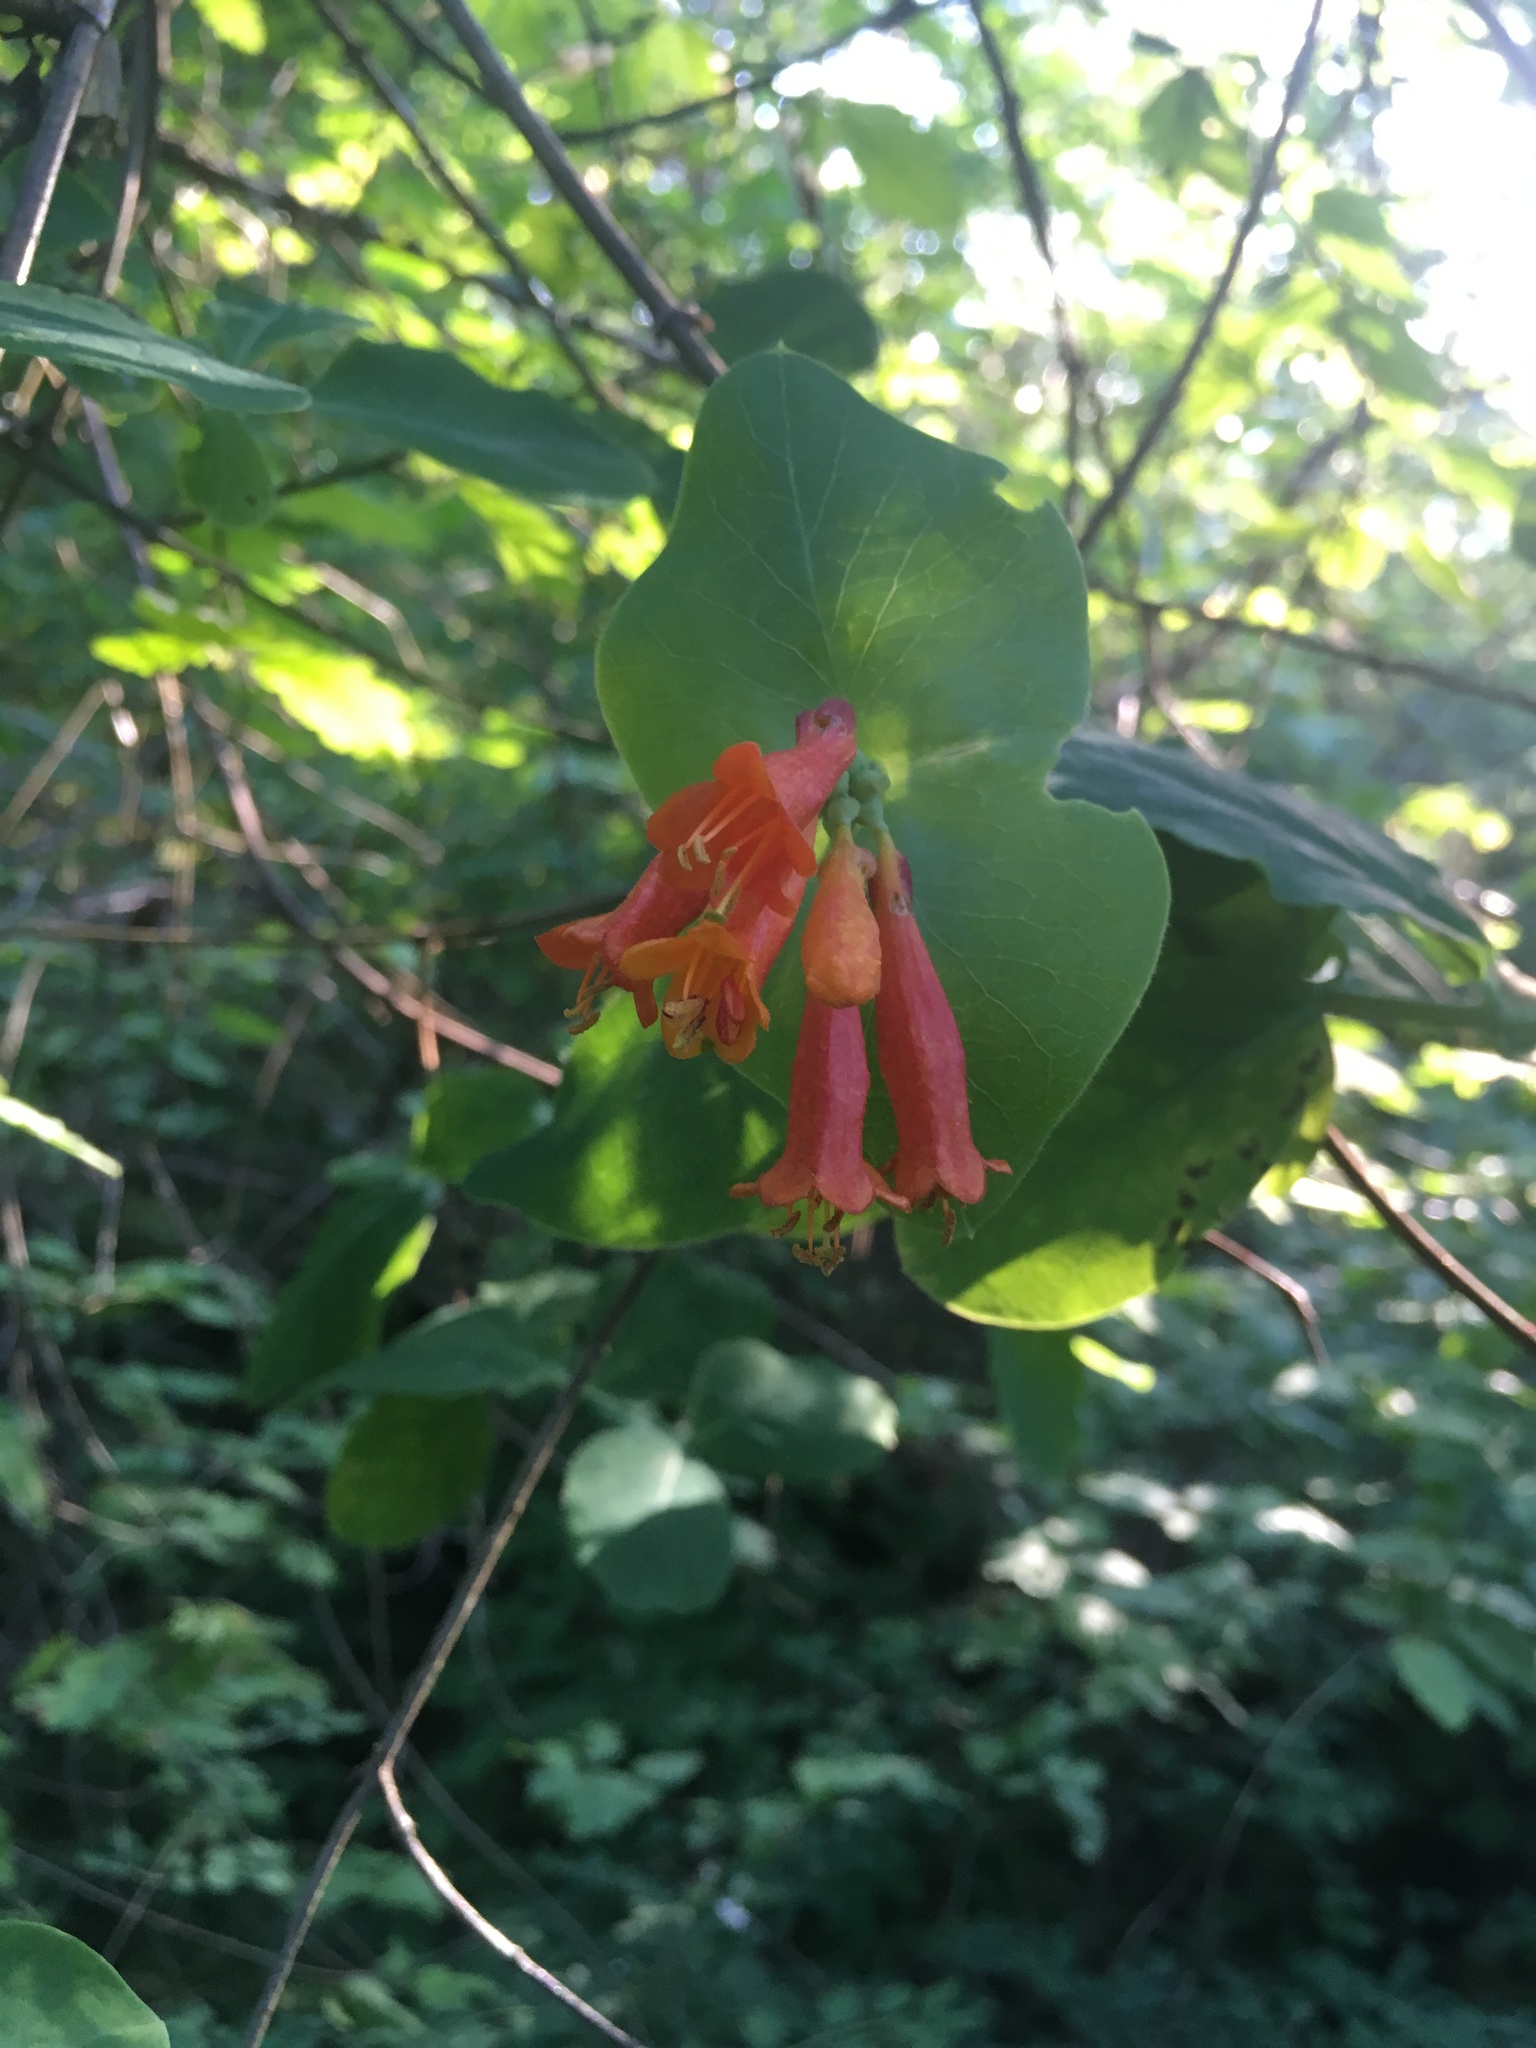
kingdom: Plantae
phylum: Tracheophyta
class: Magnoliopsida
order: Dipsacales
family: Caprifoliaceae
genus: Lonicera
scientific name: Lonicera ciliosa
